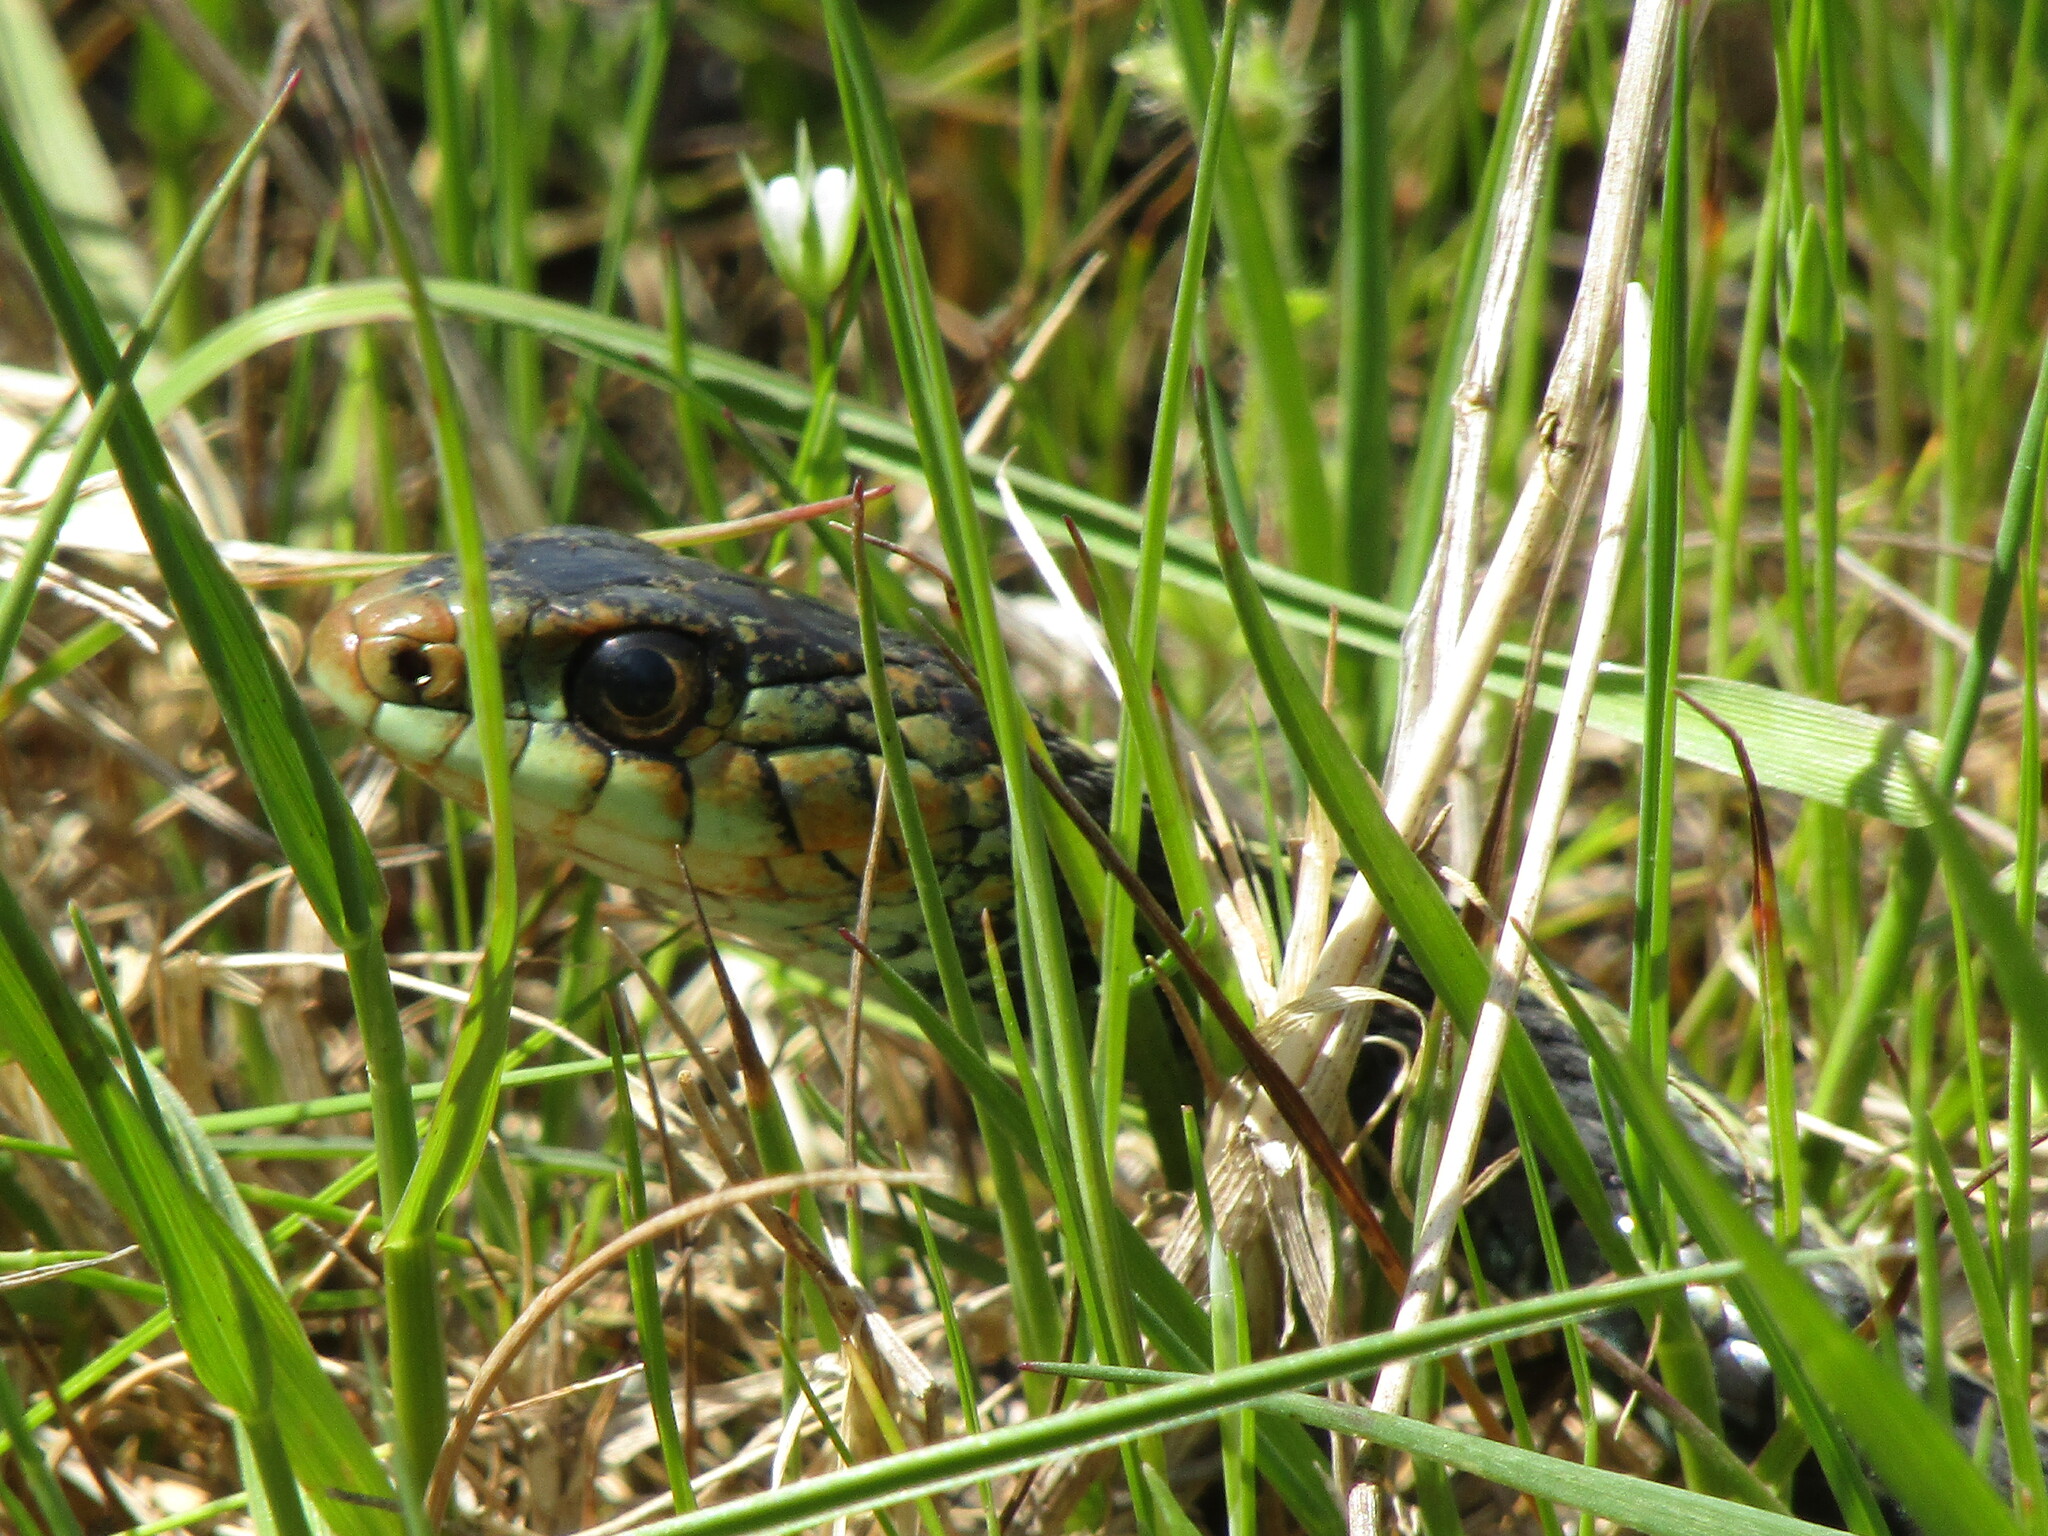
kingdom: Animalia
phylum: Chordata
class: Squamata
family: Colubridae
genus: Thamnophis
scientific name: Thamnophis sirtalis
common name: Common garter snake
